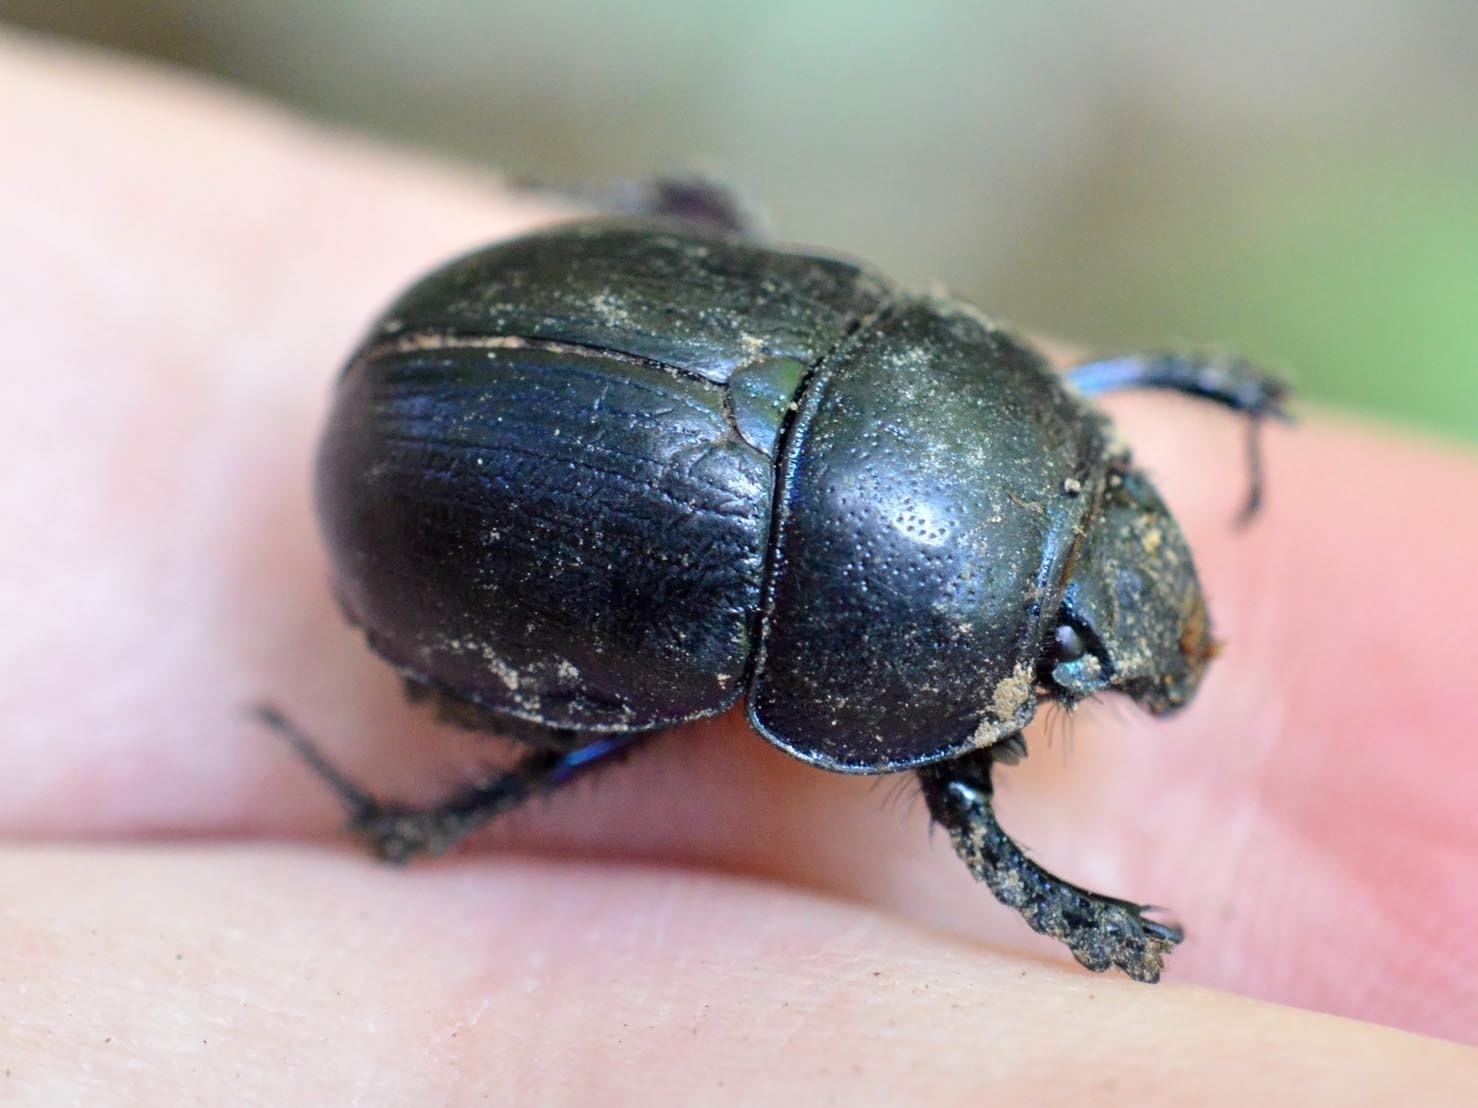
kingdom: Animalia
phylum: Arthropoda
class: Insecta
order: Coleoptera
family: Geotrupidae
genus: Anoplotrupes
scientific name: Anoplotrupes stercorosus
